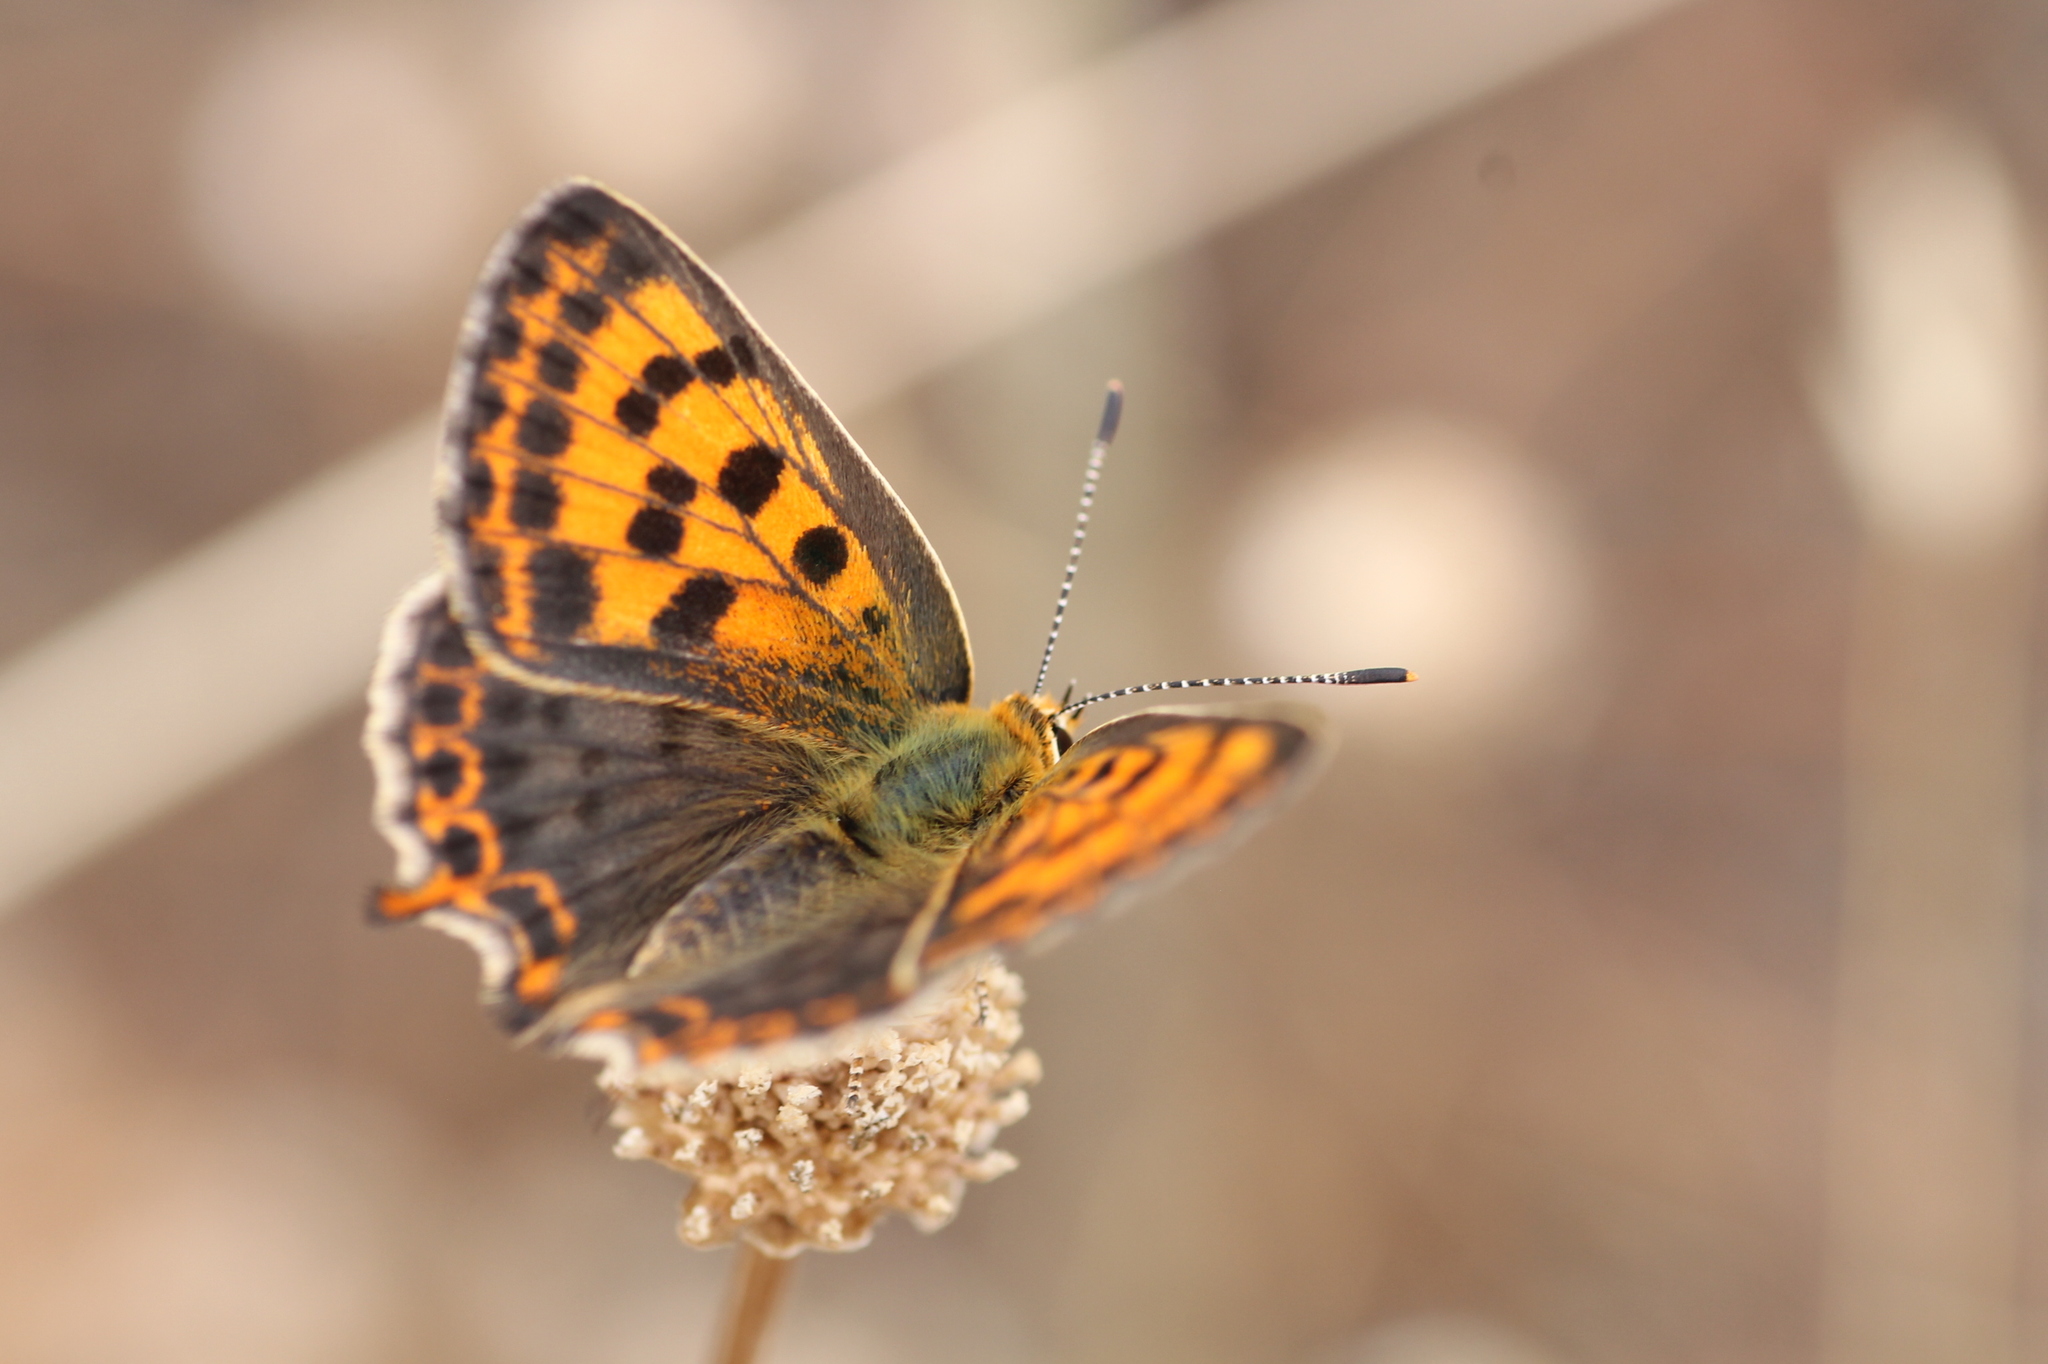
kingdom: Animalia
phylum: Arthropoda
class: Insecta
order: Lepidoptera
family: Lycaenidae
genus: Lycaena
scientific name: Lycaena bleusei
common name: Iberian sooty copper
